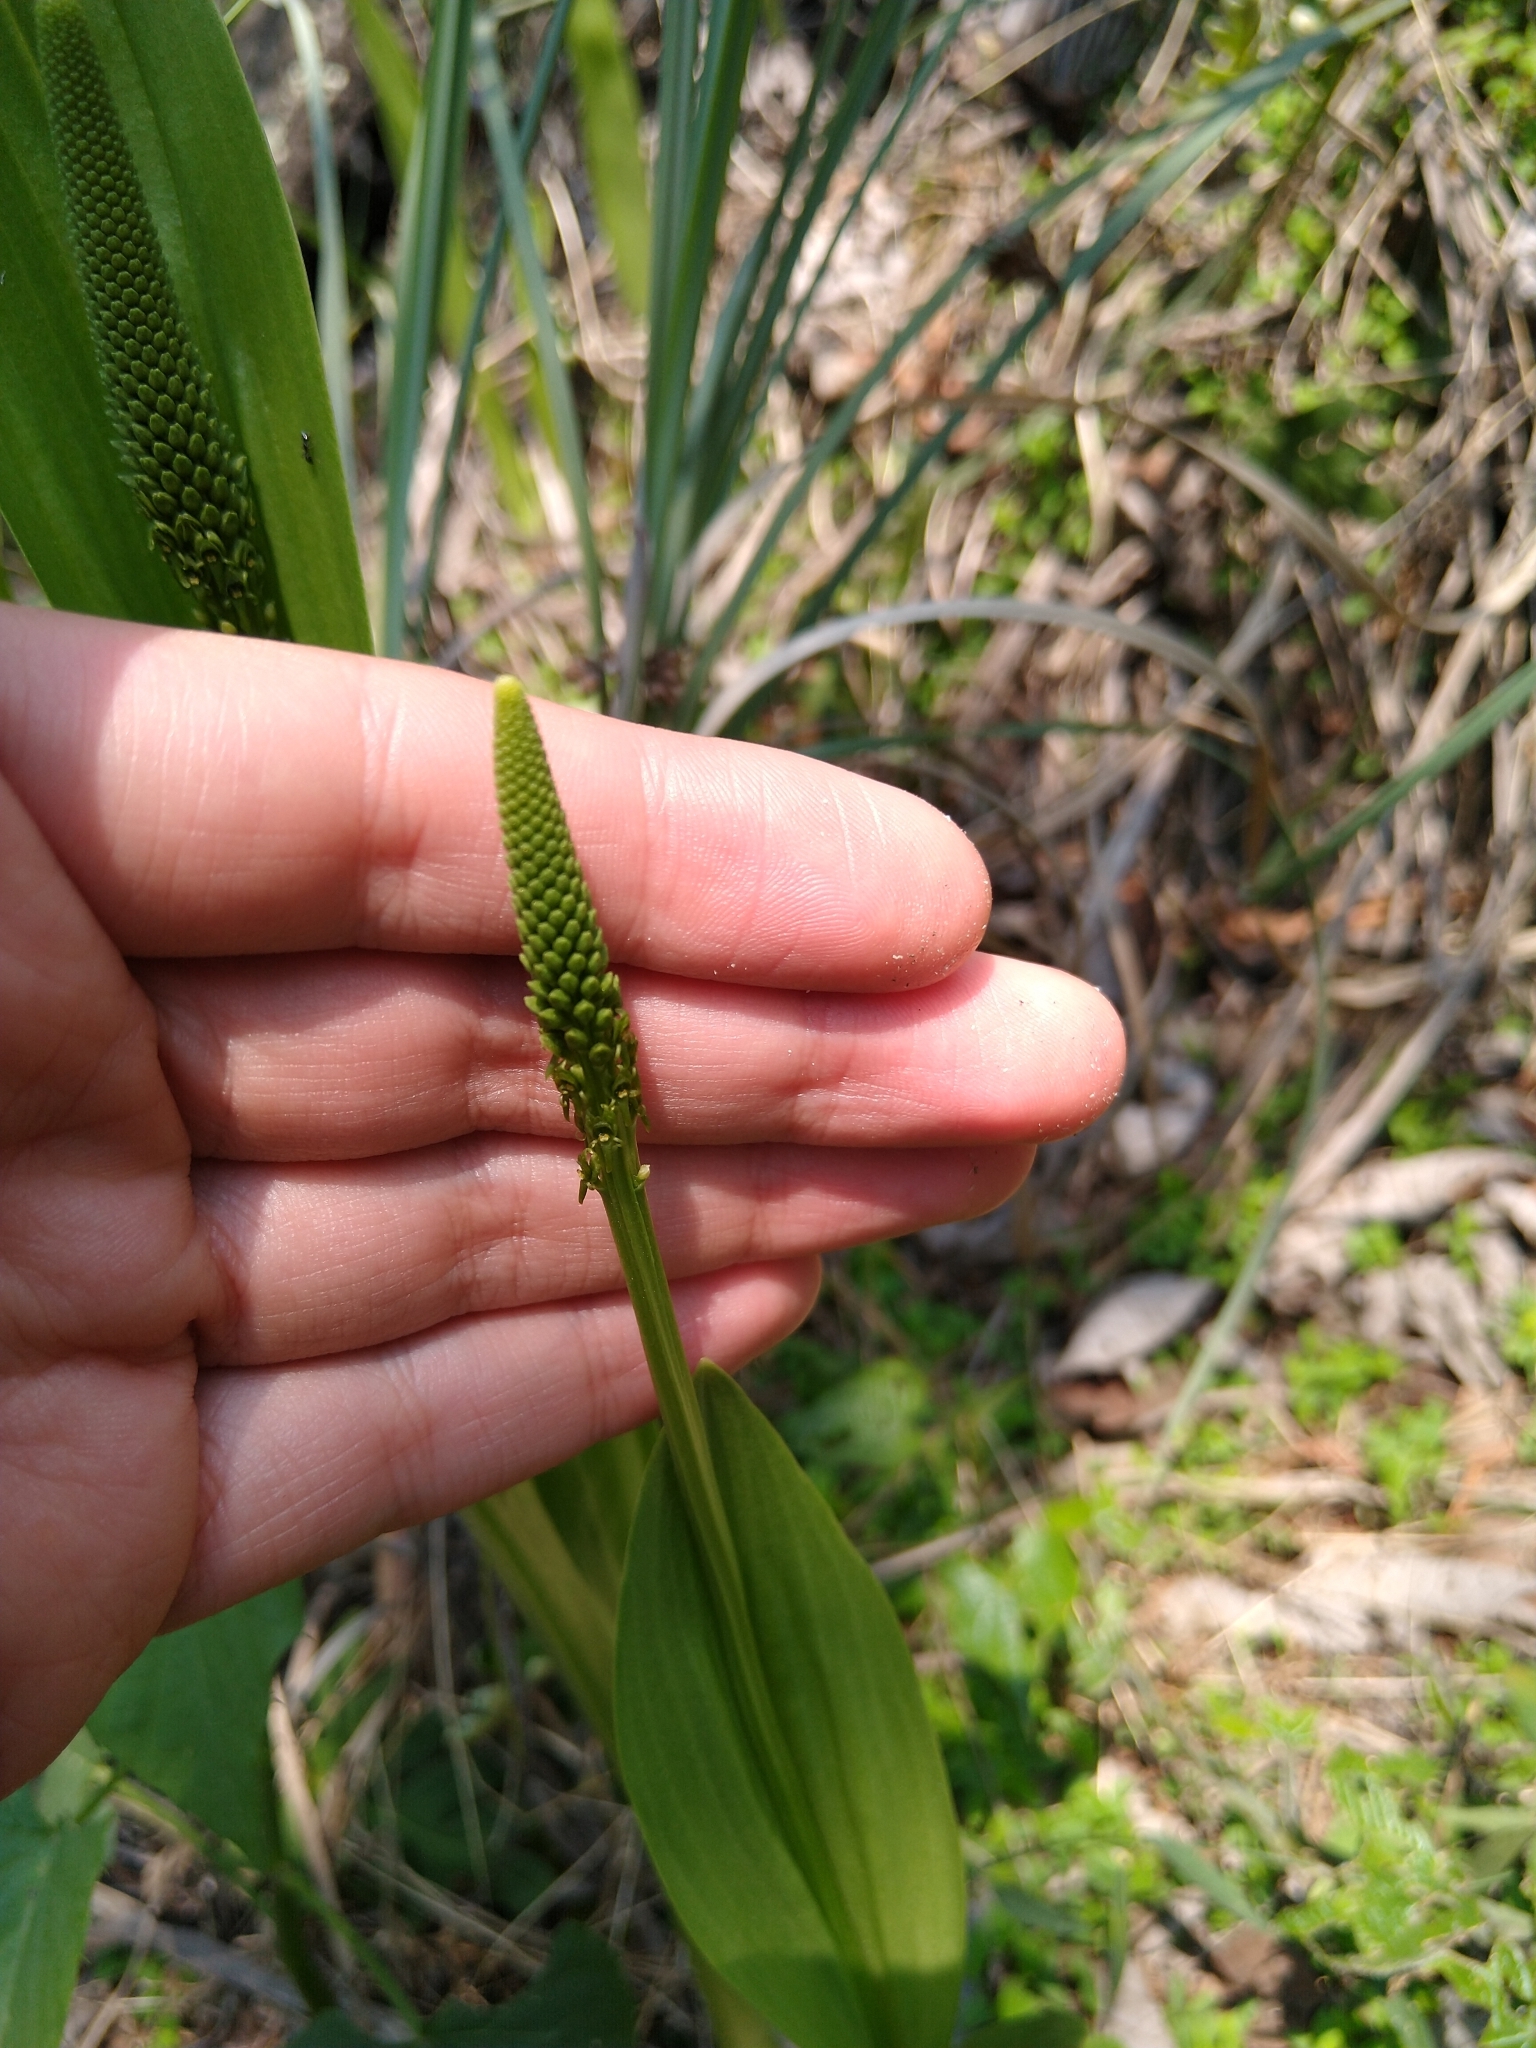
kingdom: Plantae
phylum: Tracheophyta
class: Liliopsida
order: Asparagales
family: Orchidaceae
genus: Malaxis
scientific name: Malaxis myurus
